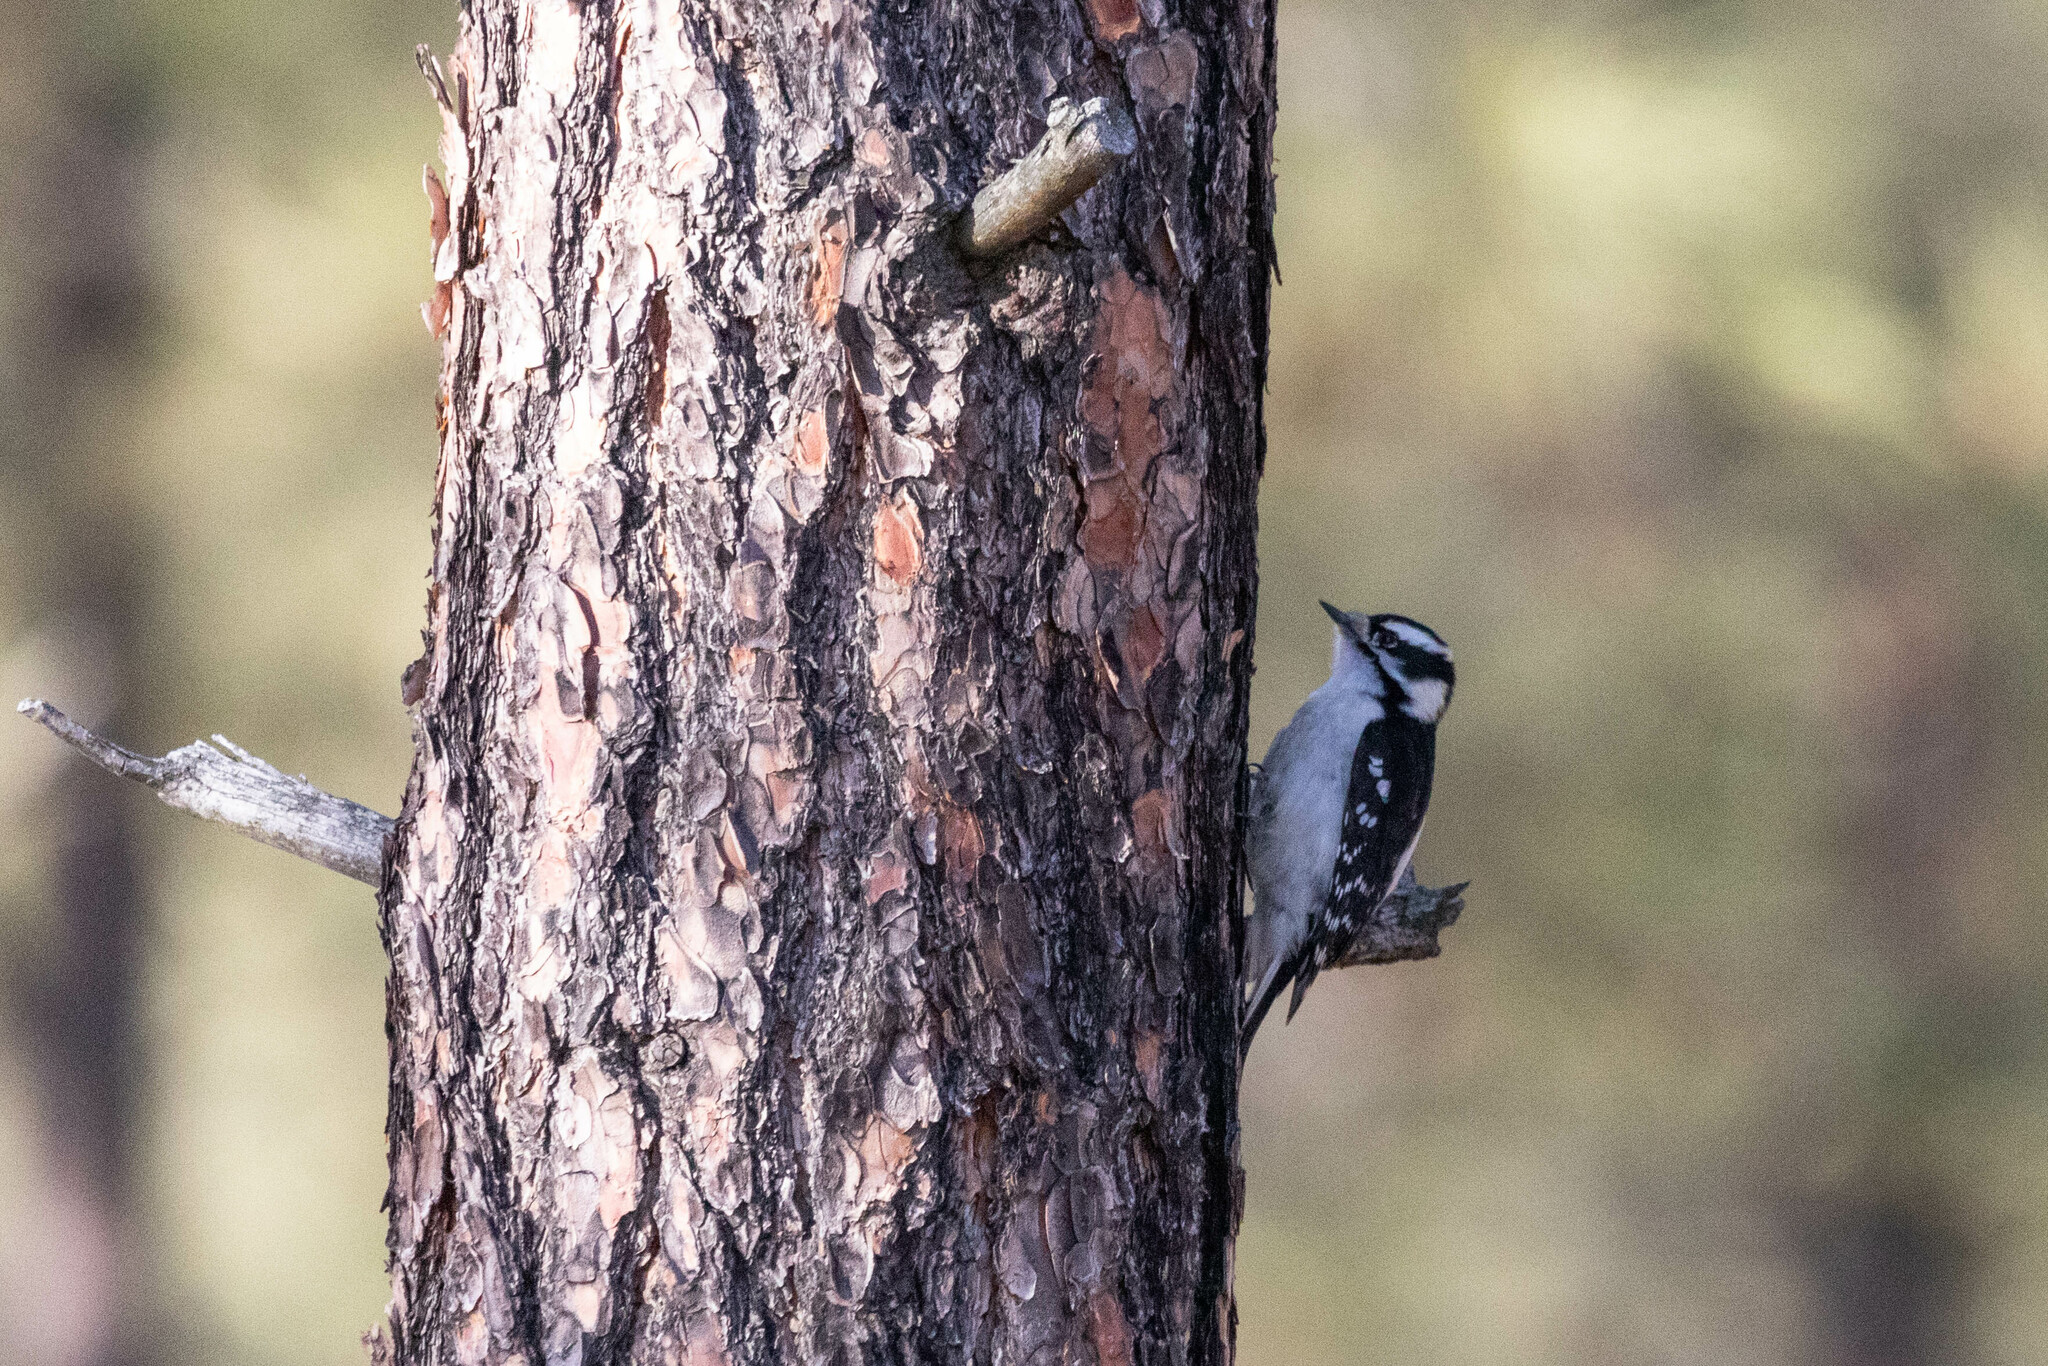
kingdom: Animalia
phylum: Chordata
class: Aves
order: Piciformes
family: Picidae
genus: Dryobates
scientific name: Dryobates pubescens
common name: Downy woodpecker
